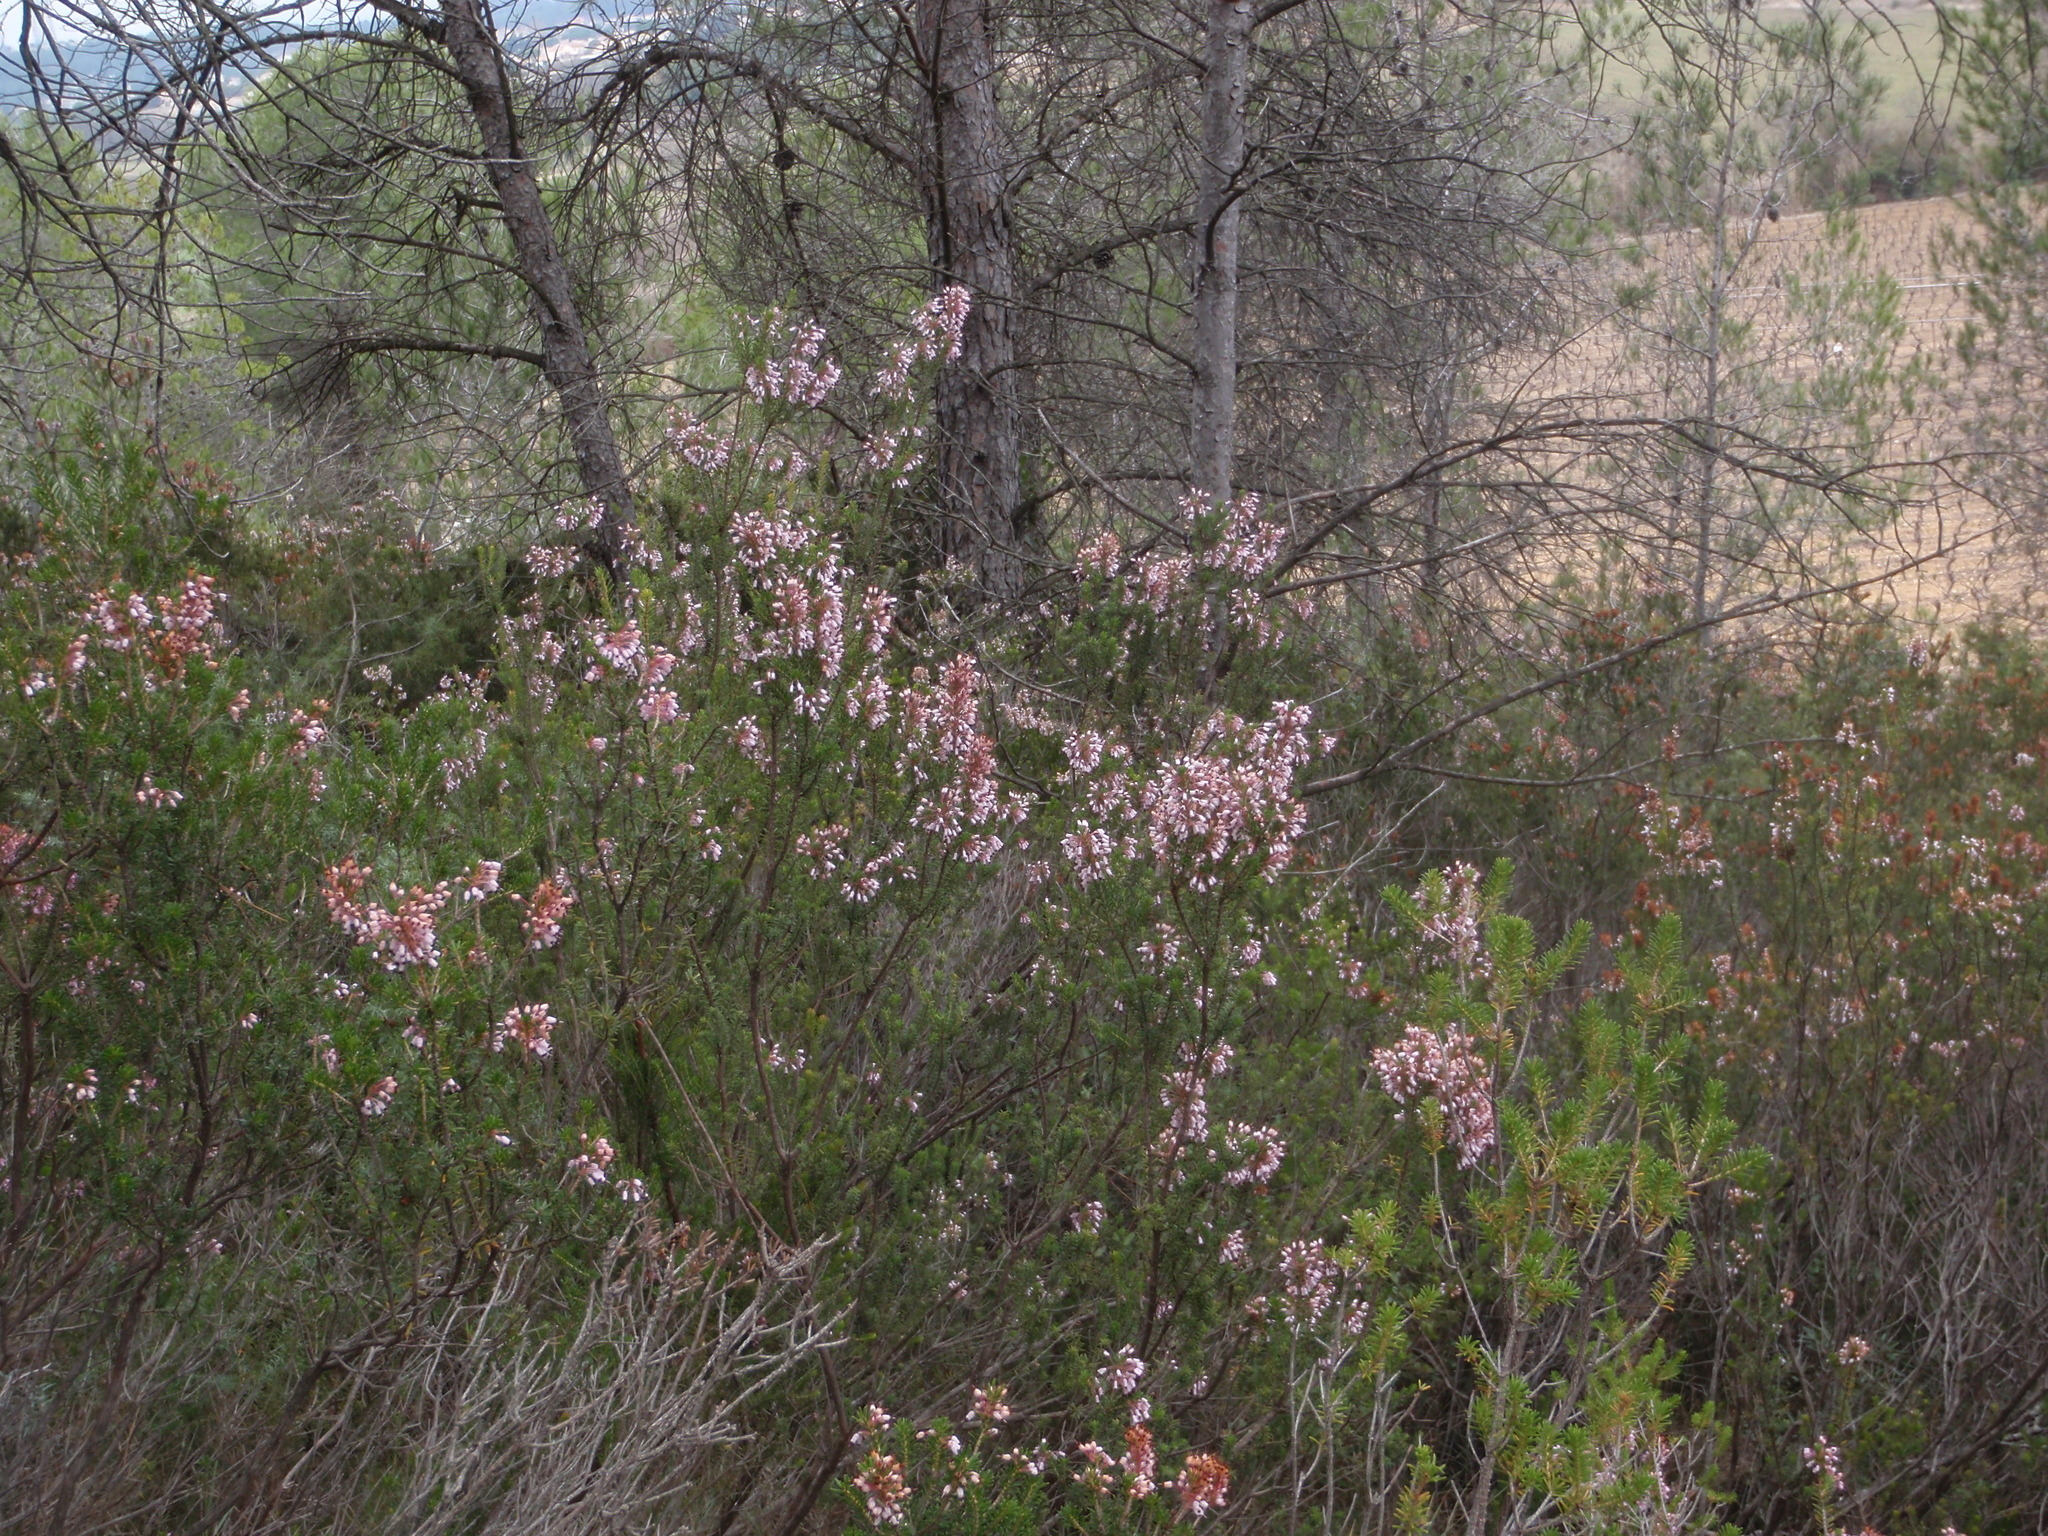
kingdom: Plantae
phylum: Tracheophyta
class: Magnoliopsida
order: Ericales
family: Ericaceae
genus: Erica
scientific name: Erica multiflora
